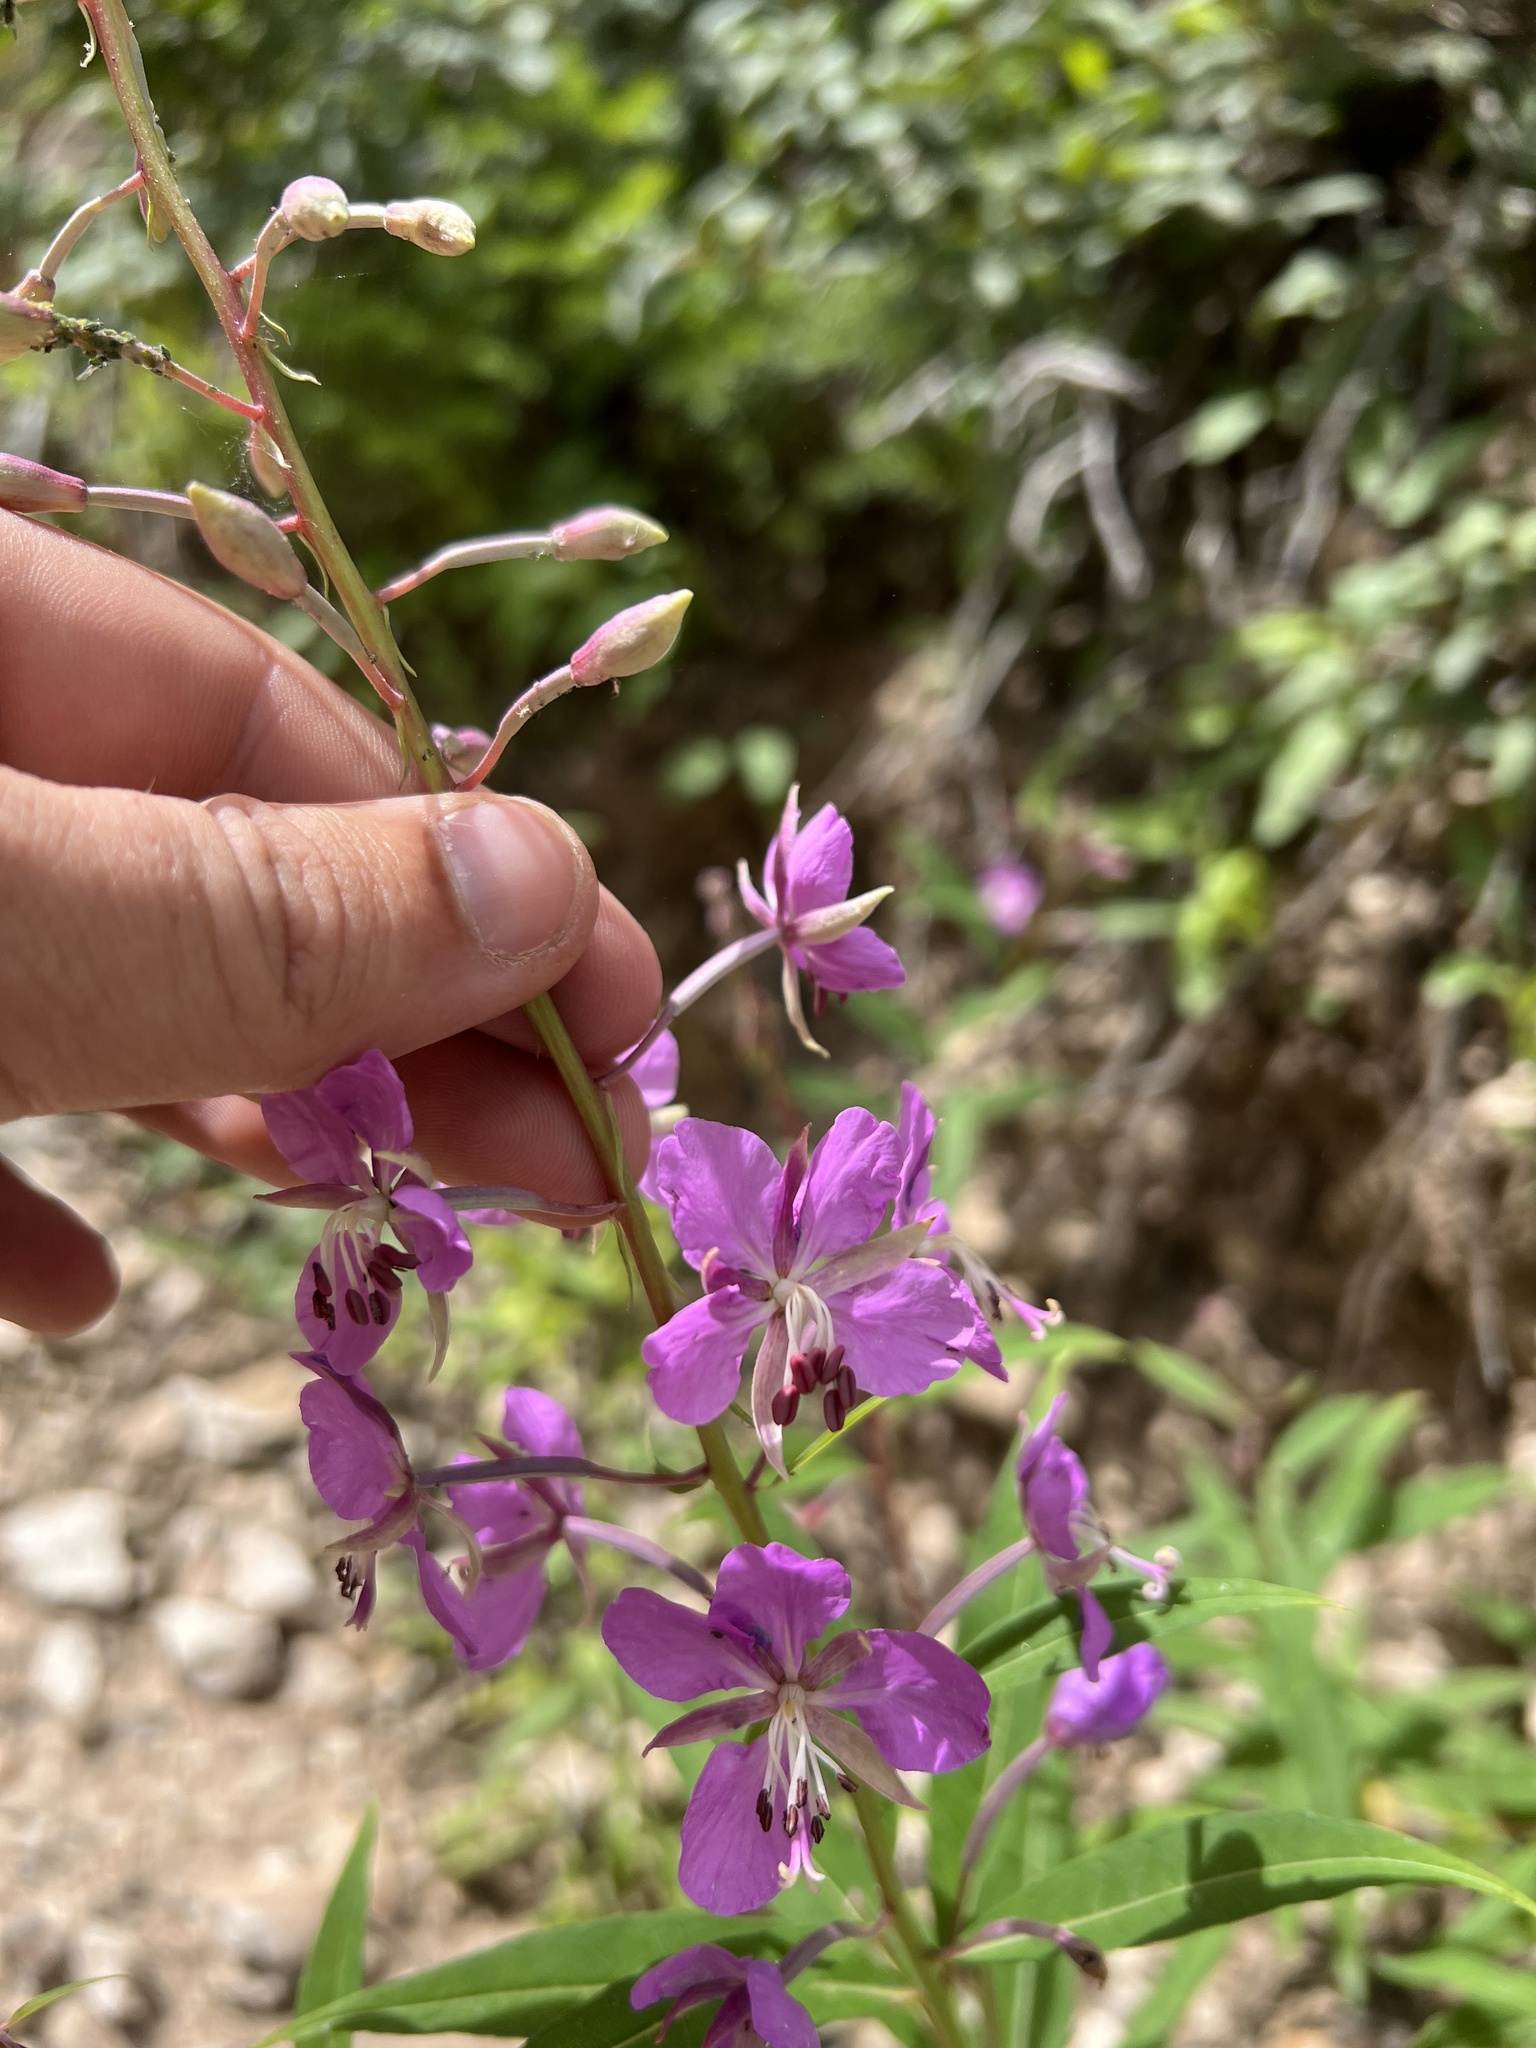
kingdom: Plantae
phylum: Tracheophyta
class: Magnoliopsida
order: Myrtales
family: Onagraceae
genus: Chamaenerion
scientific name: Chamaenerion angustifolium
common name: Fireweed
